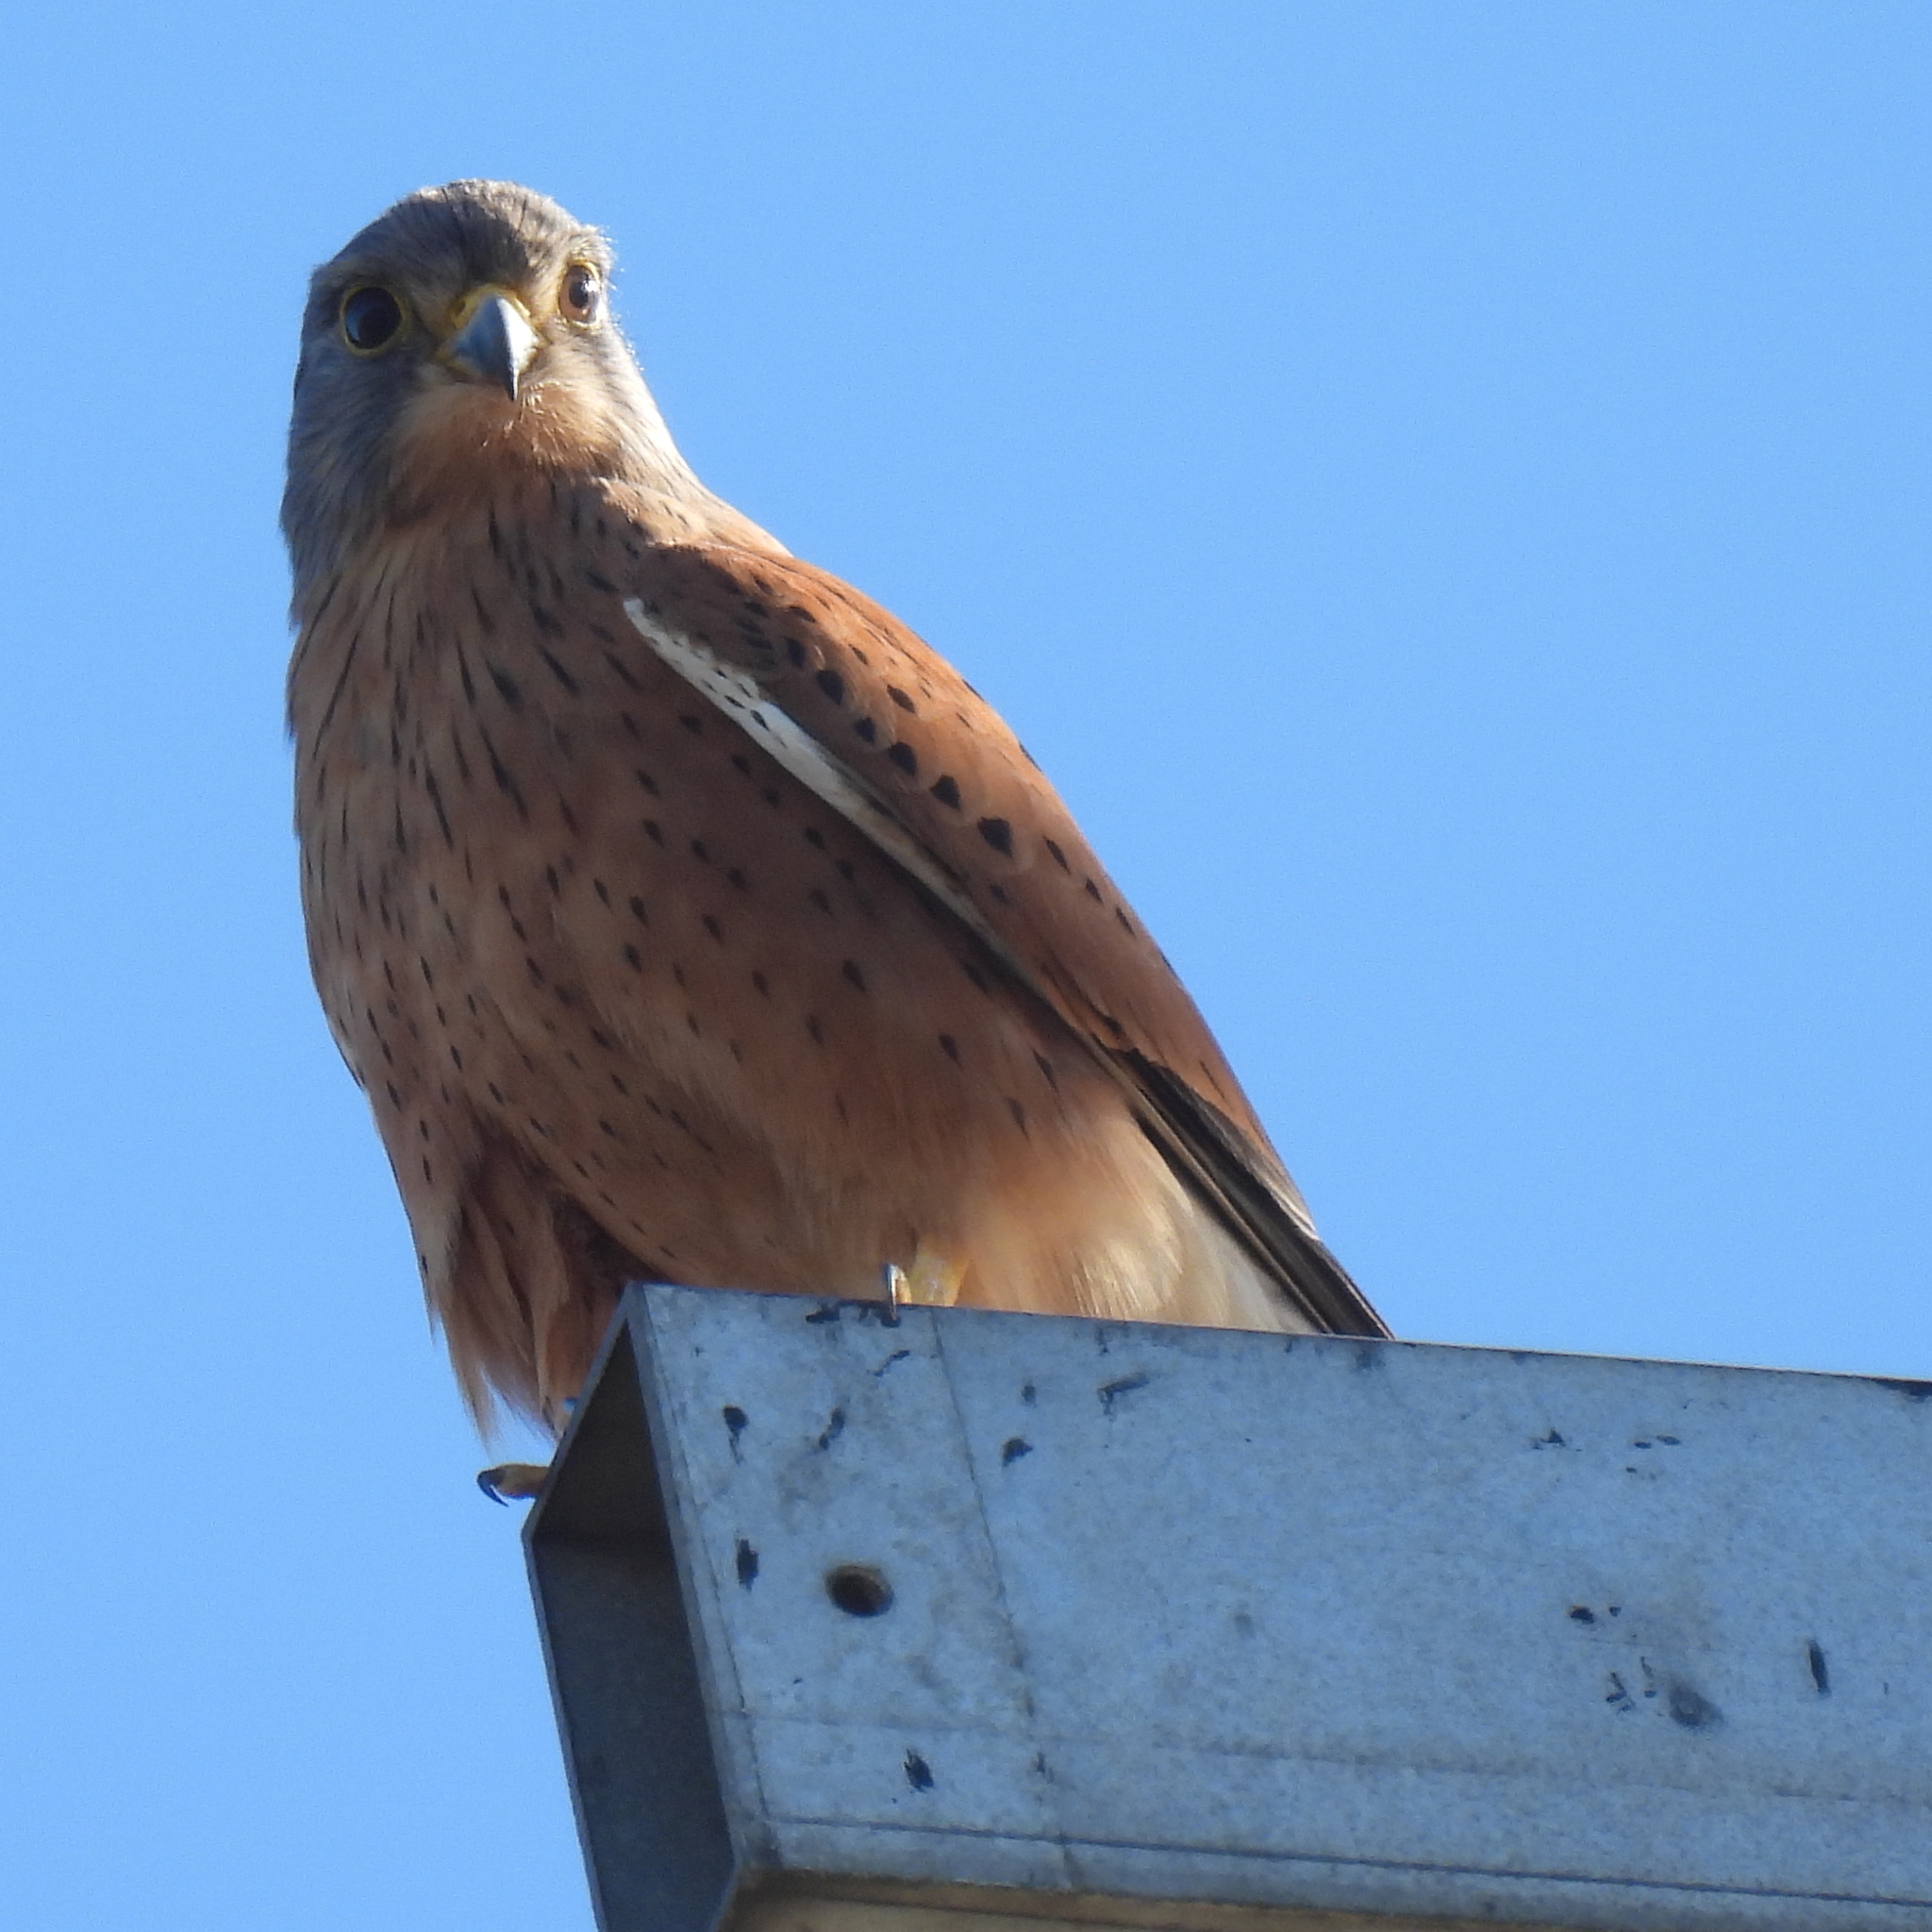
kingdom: Animalia
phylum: Chordata
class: Aves
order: Falconiformes
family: Falconidae
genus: Falco
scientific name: Falco rupicolus
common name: Rock kestrel
